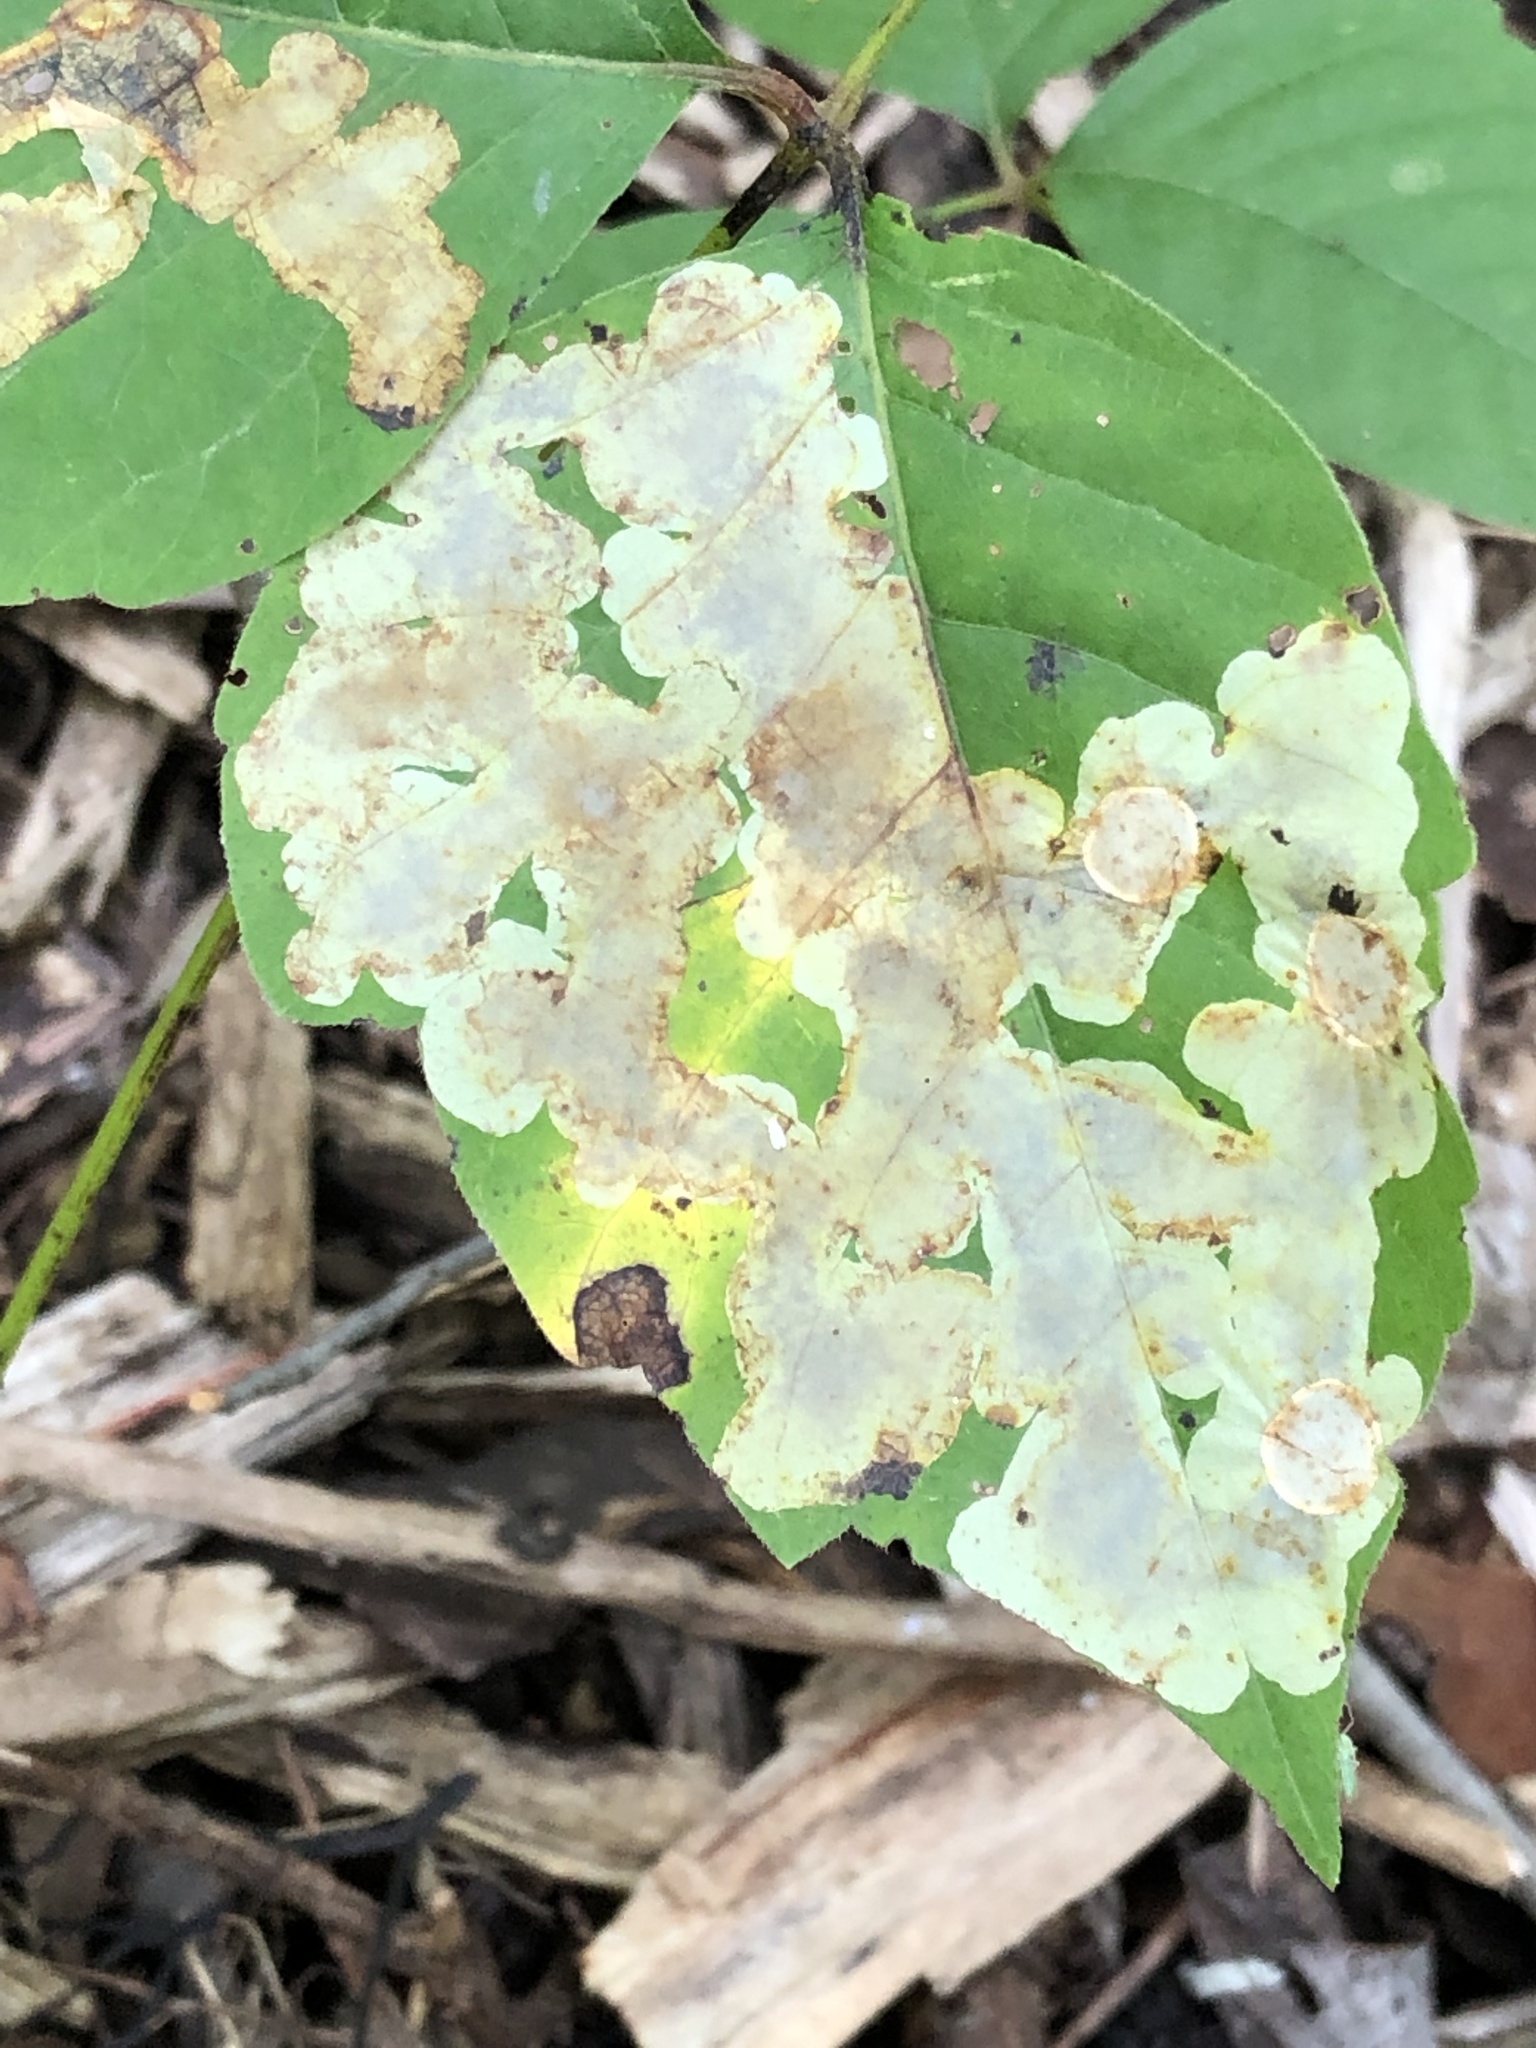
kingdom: Animalia
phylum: Arthropoda
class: Insecta
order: Lepidoptera
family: Gracillariidae
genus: Cameraria
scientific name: Cameraria guttifinitella
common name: Poison ivy leaf-miner moth
